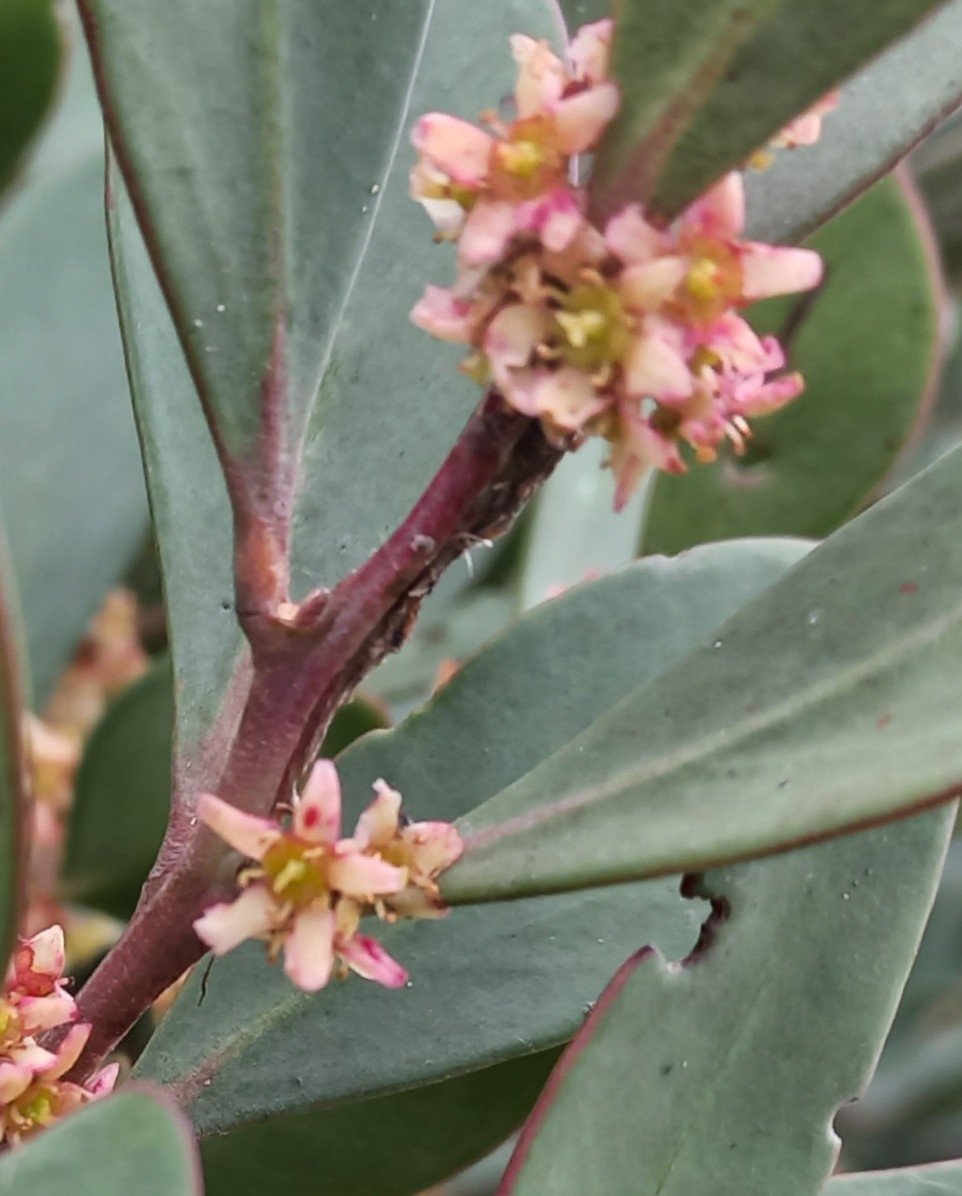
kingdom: Plantae
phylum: Tracheophyta
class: Magnoliopsida
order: Celastrales
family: Celastraceae
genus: Pterocelastrus
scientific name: Pterocelastrus tricuspidatus
